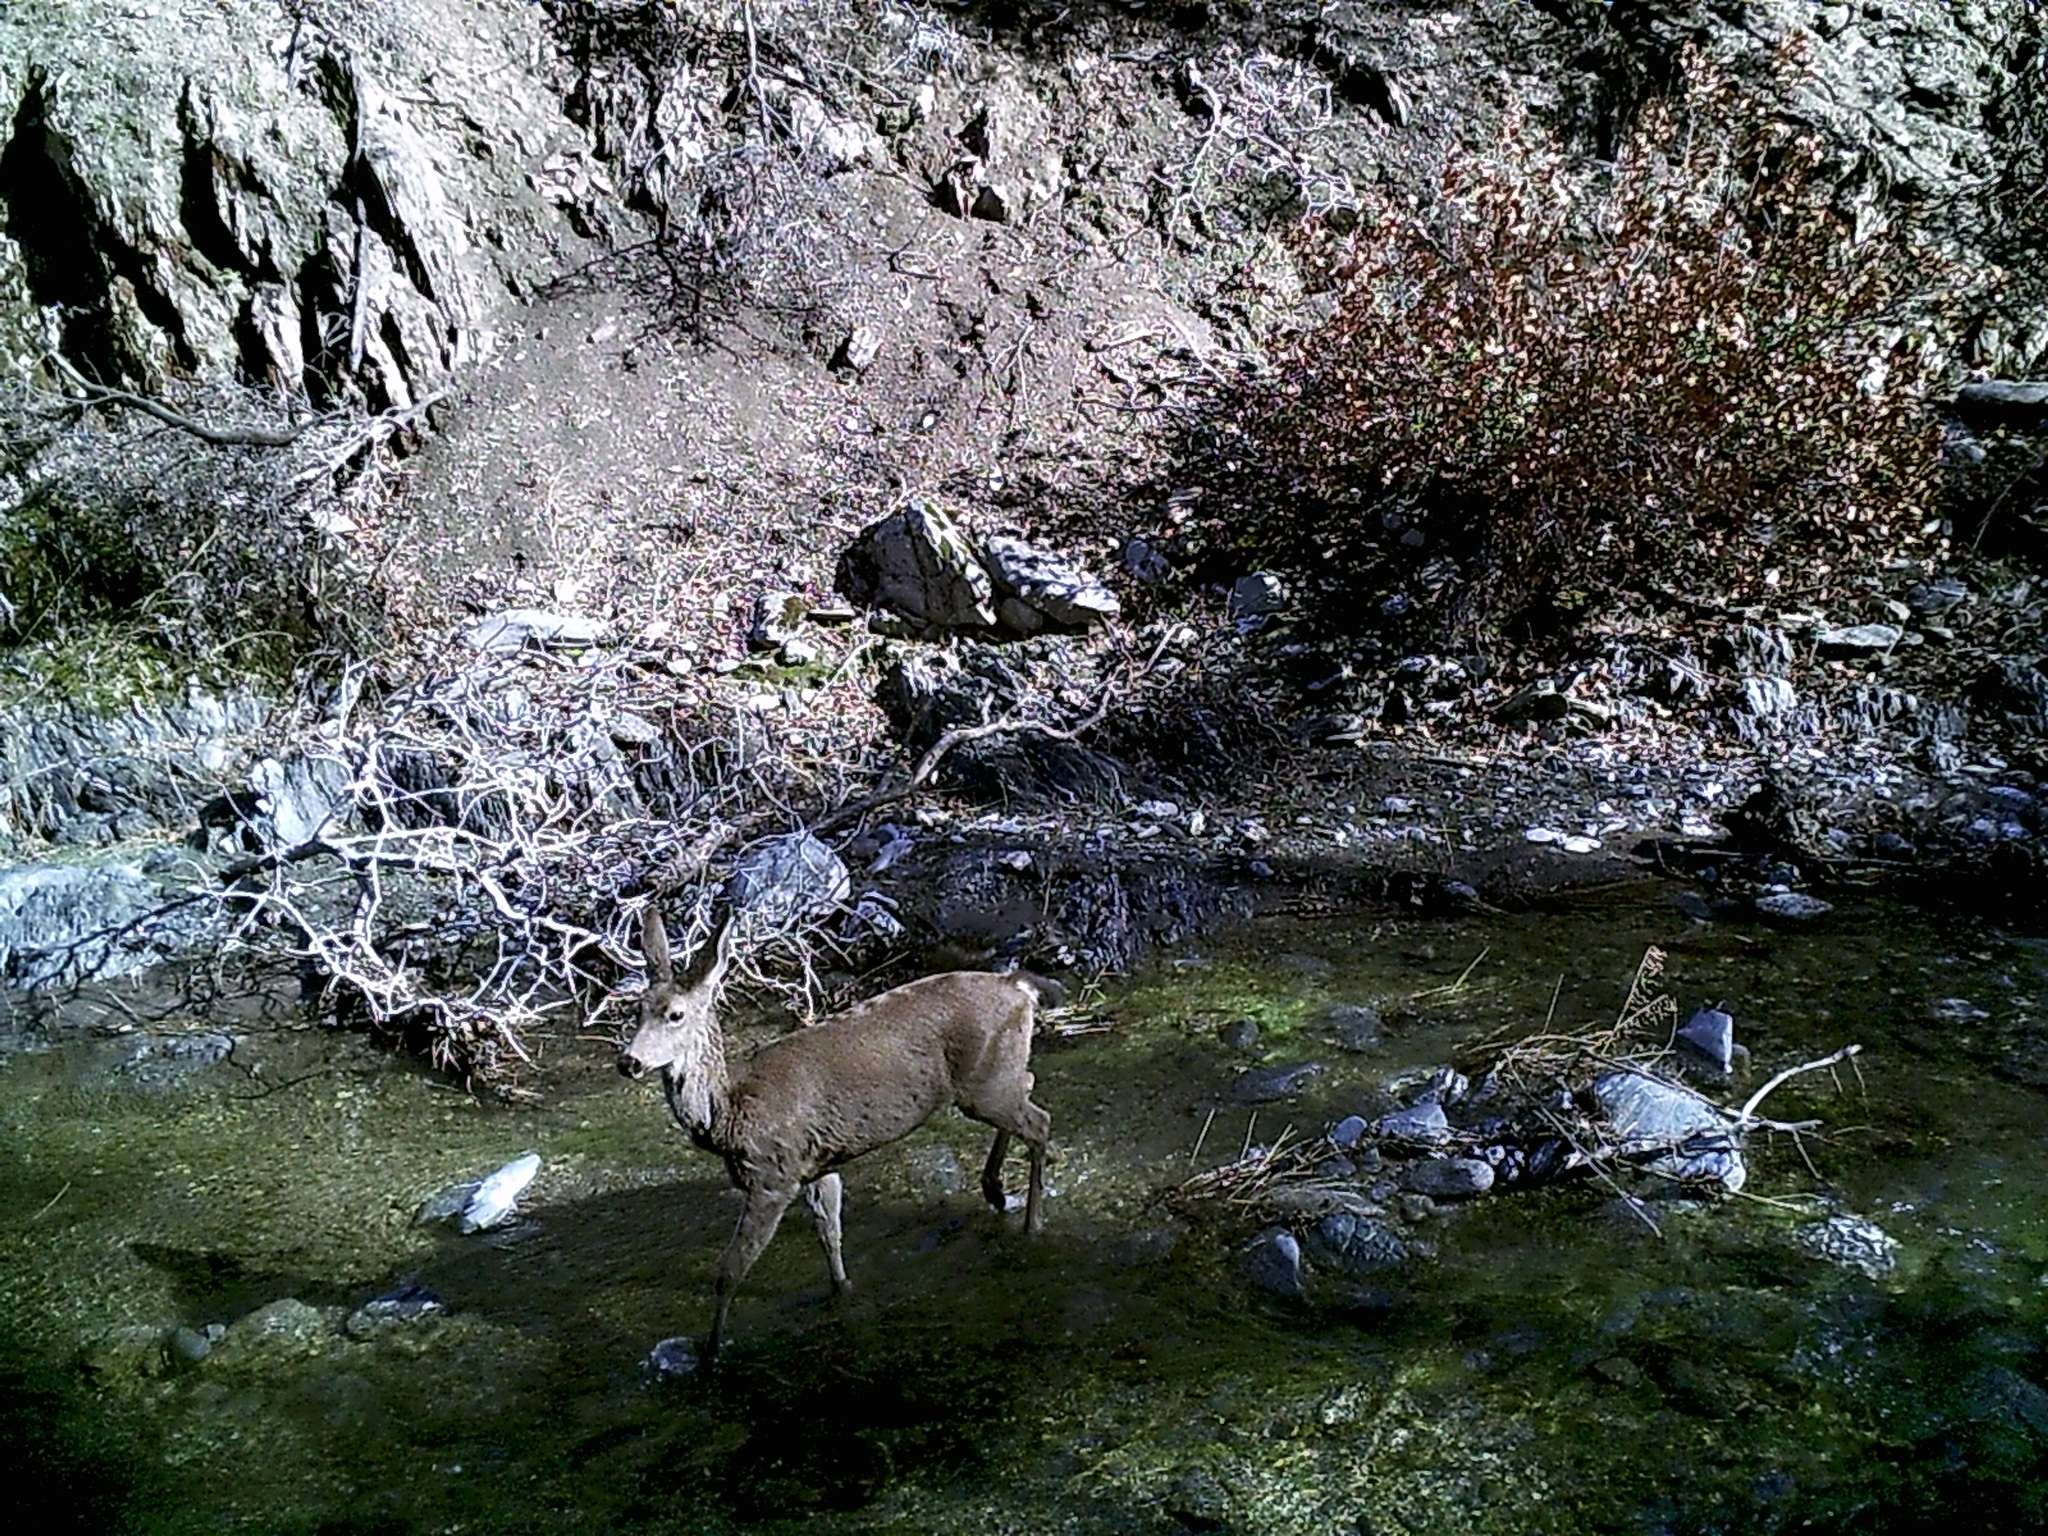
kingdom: Animalia
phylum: Chordata
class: Mammalia
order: Artiodactyla
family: Cervidae
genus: Odocoileus
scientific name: Odocoileus hemionus
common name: Mule deer
